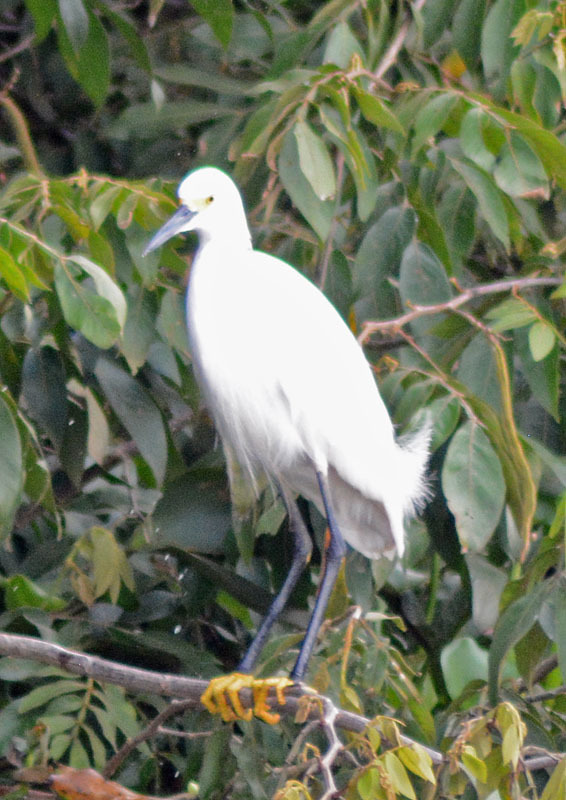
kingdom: Animalia
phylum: Chordata
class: Aves
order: Pelecaniformes
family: Ardeidae
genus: Egretta
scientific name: Egretta thula
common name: Snowy egret
